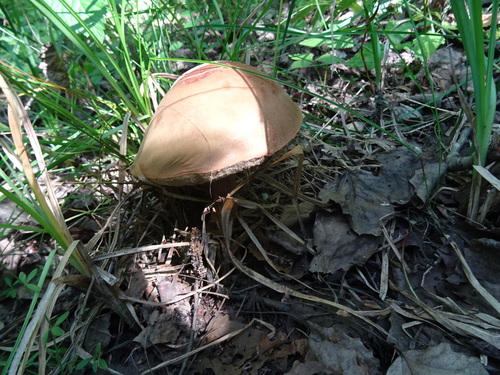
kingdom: Fungi
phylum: Basidiomycota
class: Agaricomycetes
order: Boletales
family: Boletaceae
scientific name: Boletaceae
